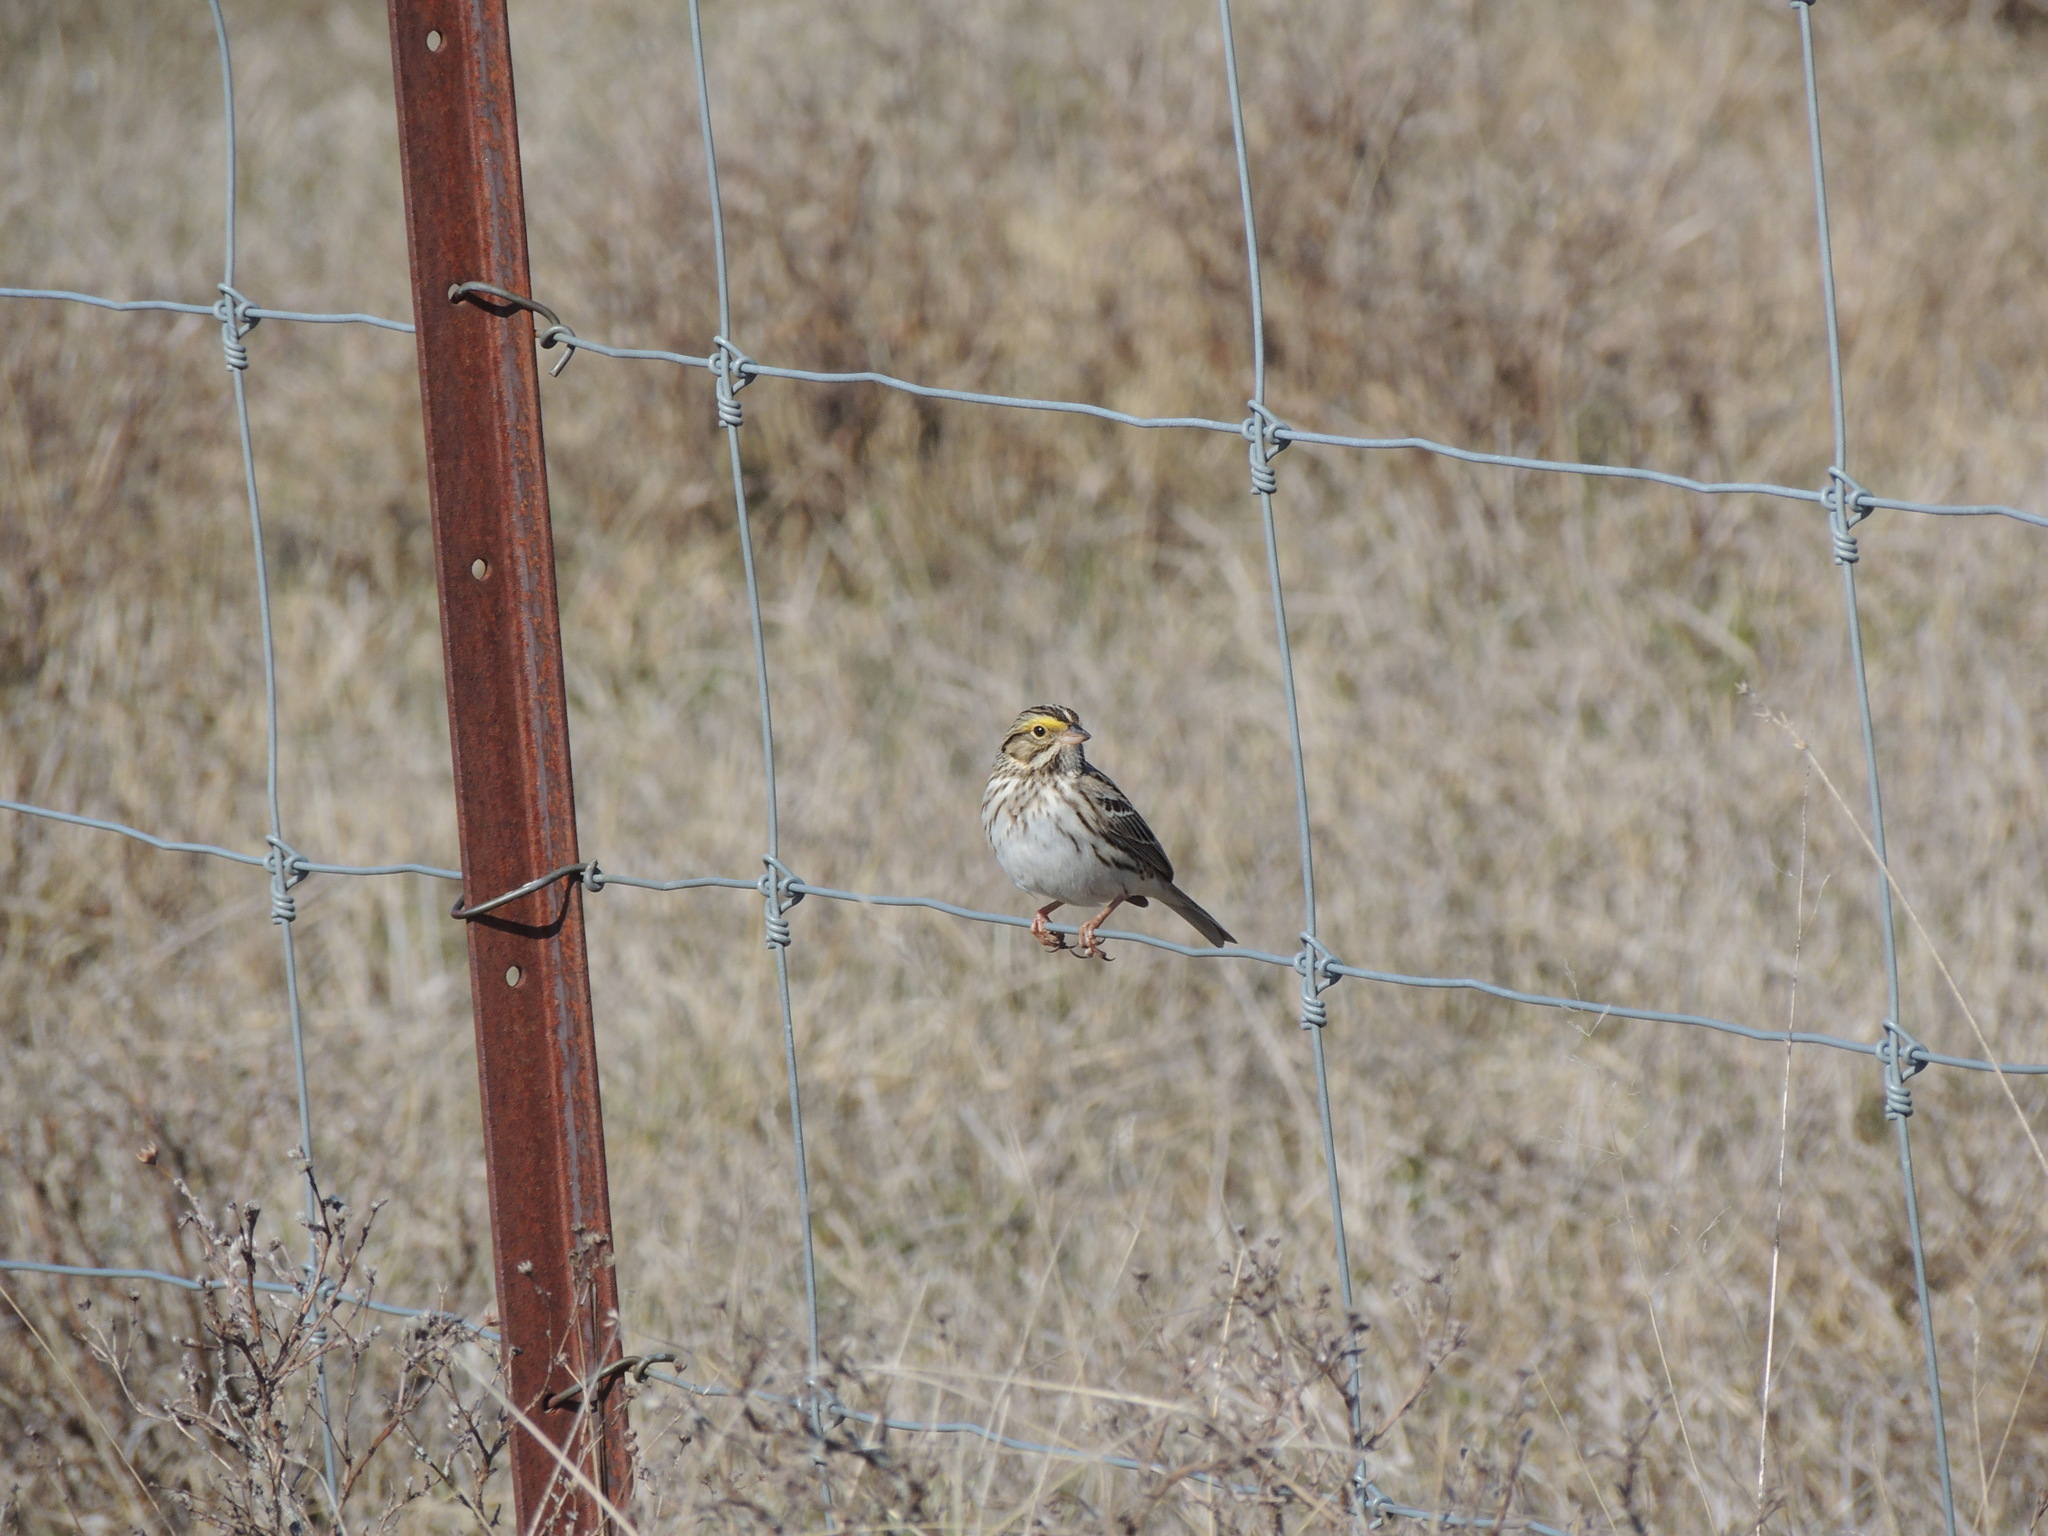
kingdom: Animalia
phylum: Chordata
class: Aves
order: Passeriformes
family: Passerellidae
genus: Passerculus
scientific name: Passerculus sandwichensis
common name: Savannah sparrow
